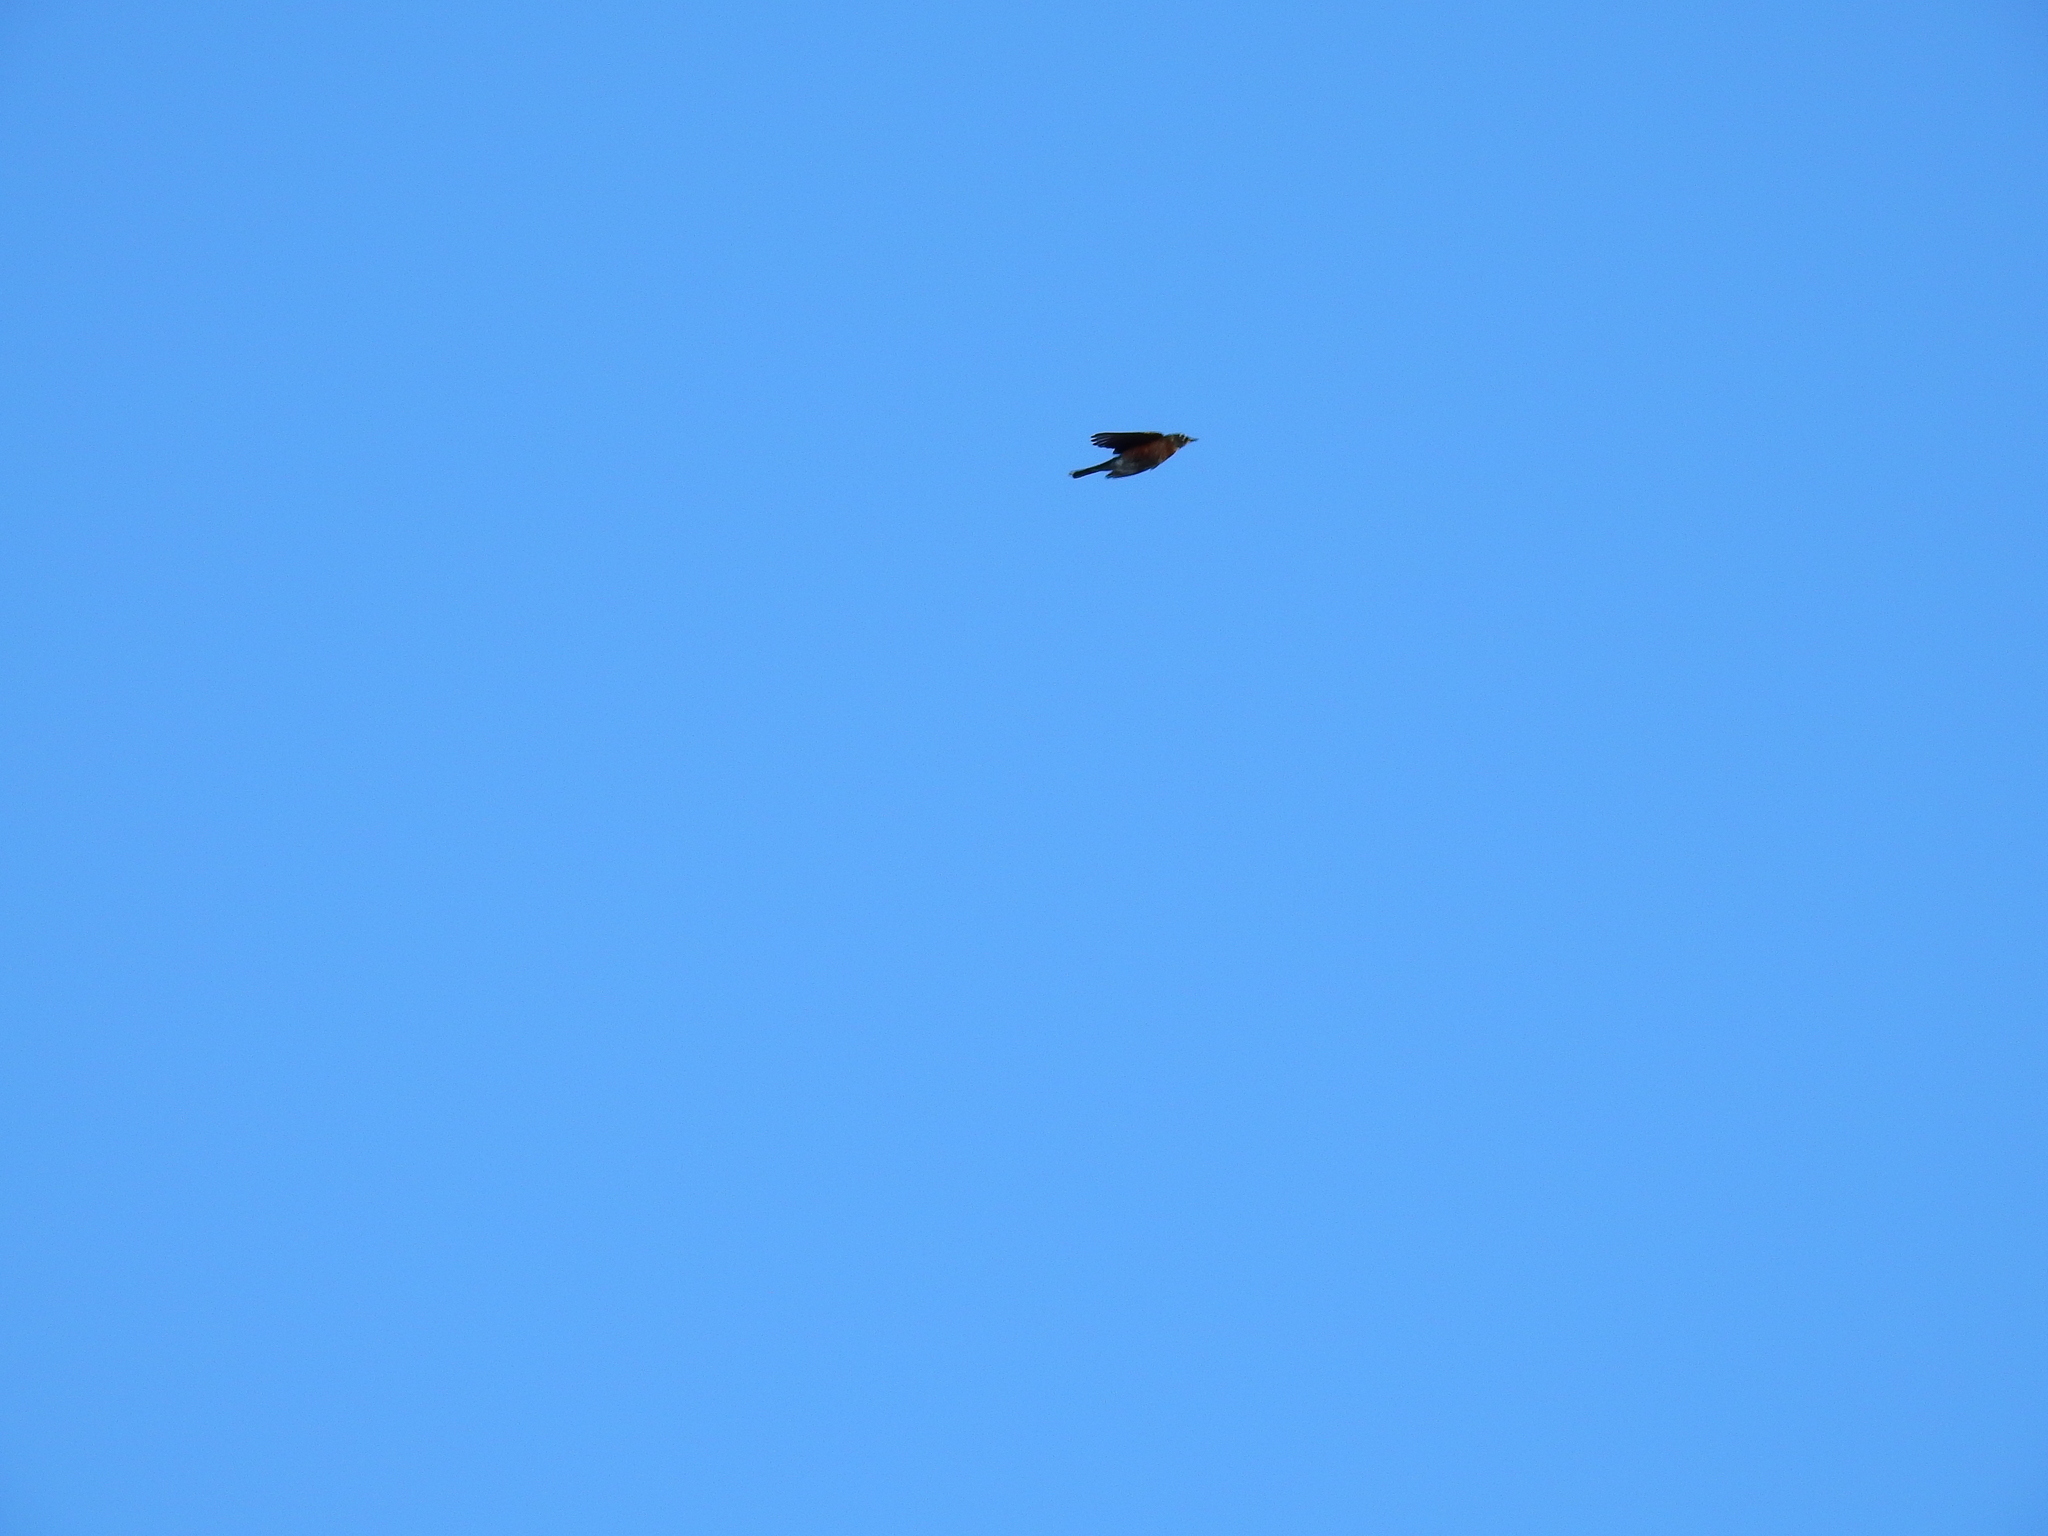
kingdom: Animalia
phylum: Chordata
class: Aves
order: Passeriformes
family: Turdidae
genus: Turdus
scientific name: Turdus migratorius
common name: American robin
